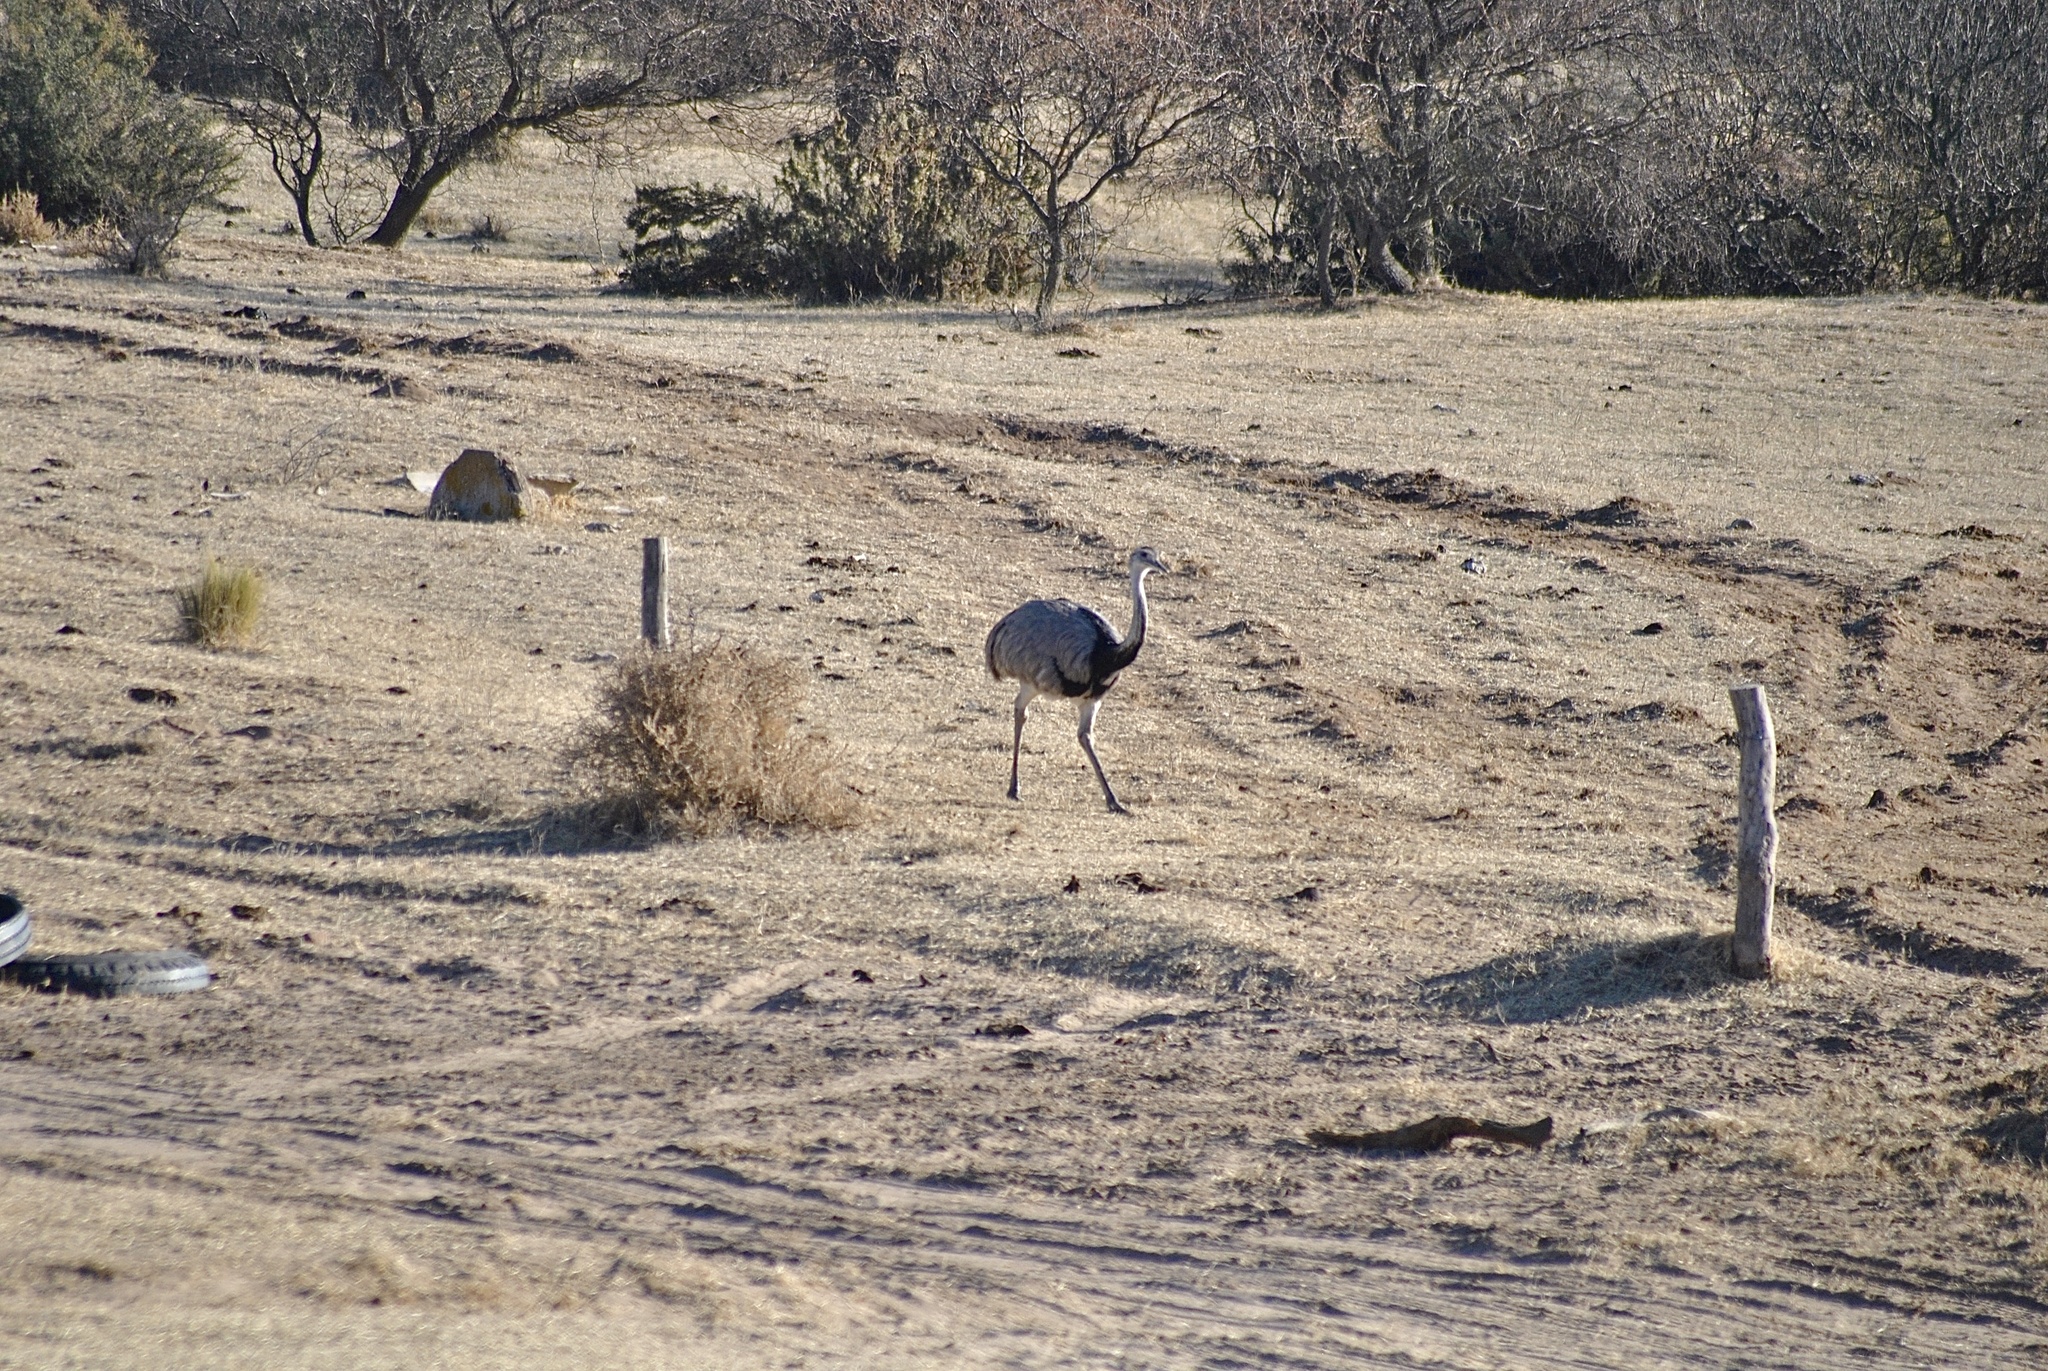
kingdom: Animalia
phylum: Chordata
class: Aves
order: Rheiformes
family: Rheidae
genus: Rhea
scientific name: Rhea americana
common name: Greater rhea
